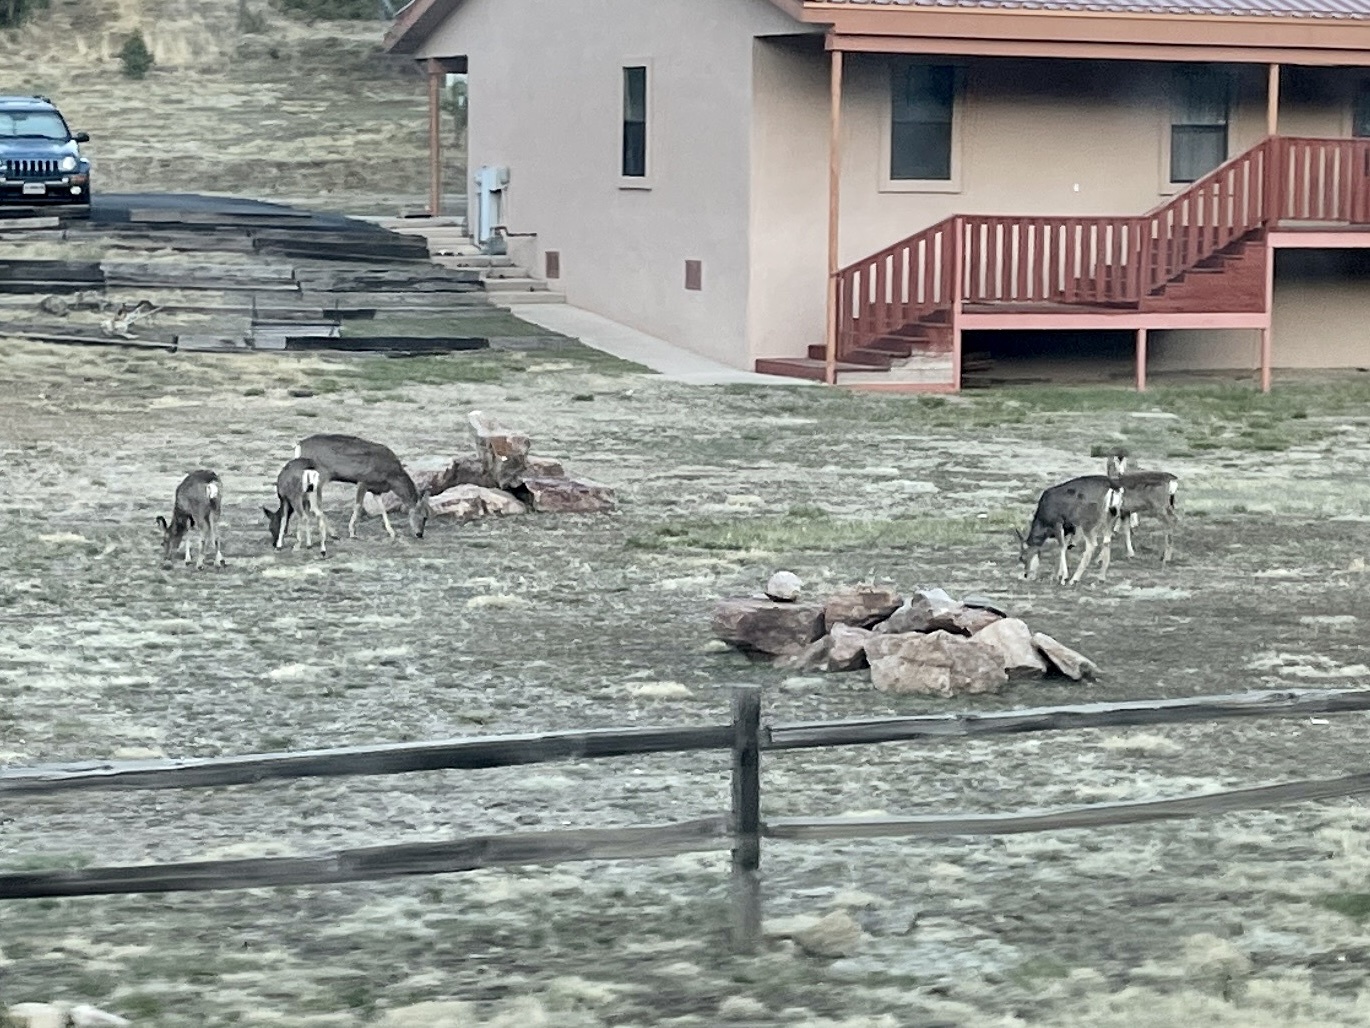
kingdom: Animalia
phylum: Chordata
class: Mammalia
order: Artiodactyla
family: Cervidae
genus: Odocoileus
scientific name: Odocoileus hemionus
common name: Mule deer
